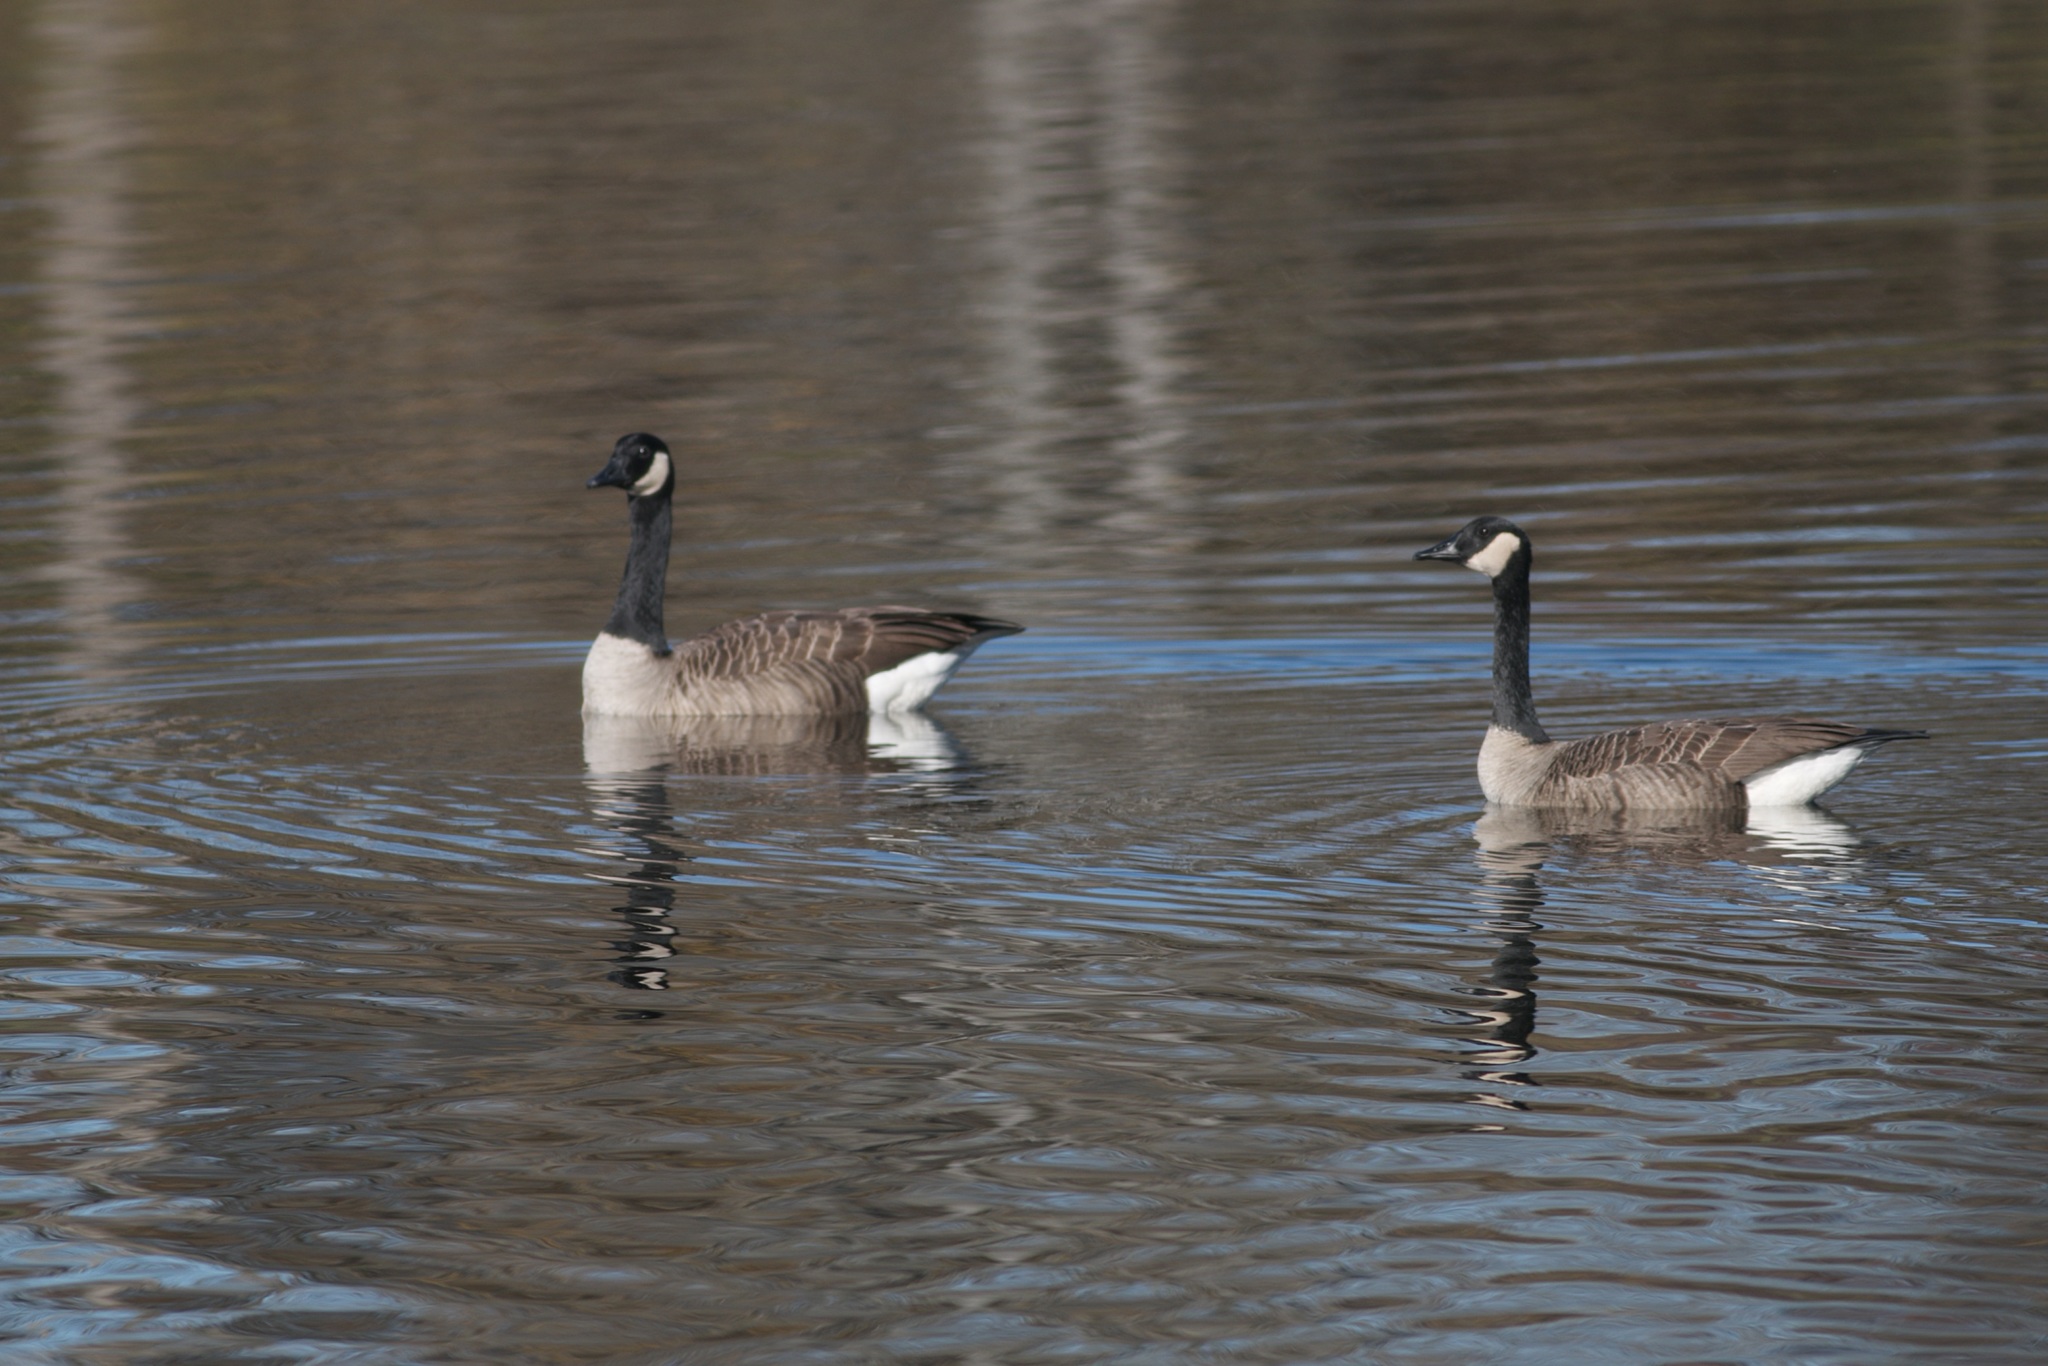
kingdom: Animalia
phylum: Chordata
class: Aves
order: Anseriformes
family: Anatidae
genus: Branta
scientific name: Branta canadensis
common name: Canada goose
